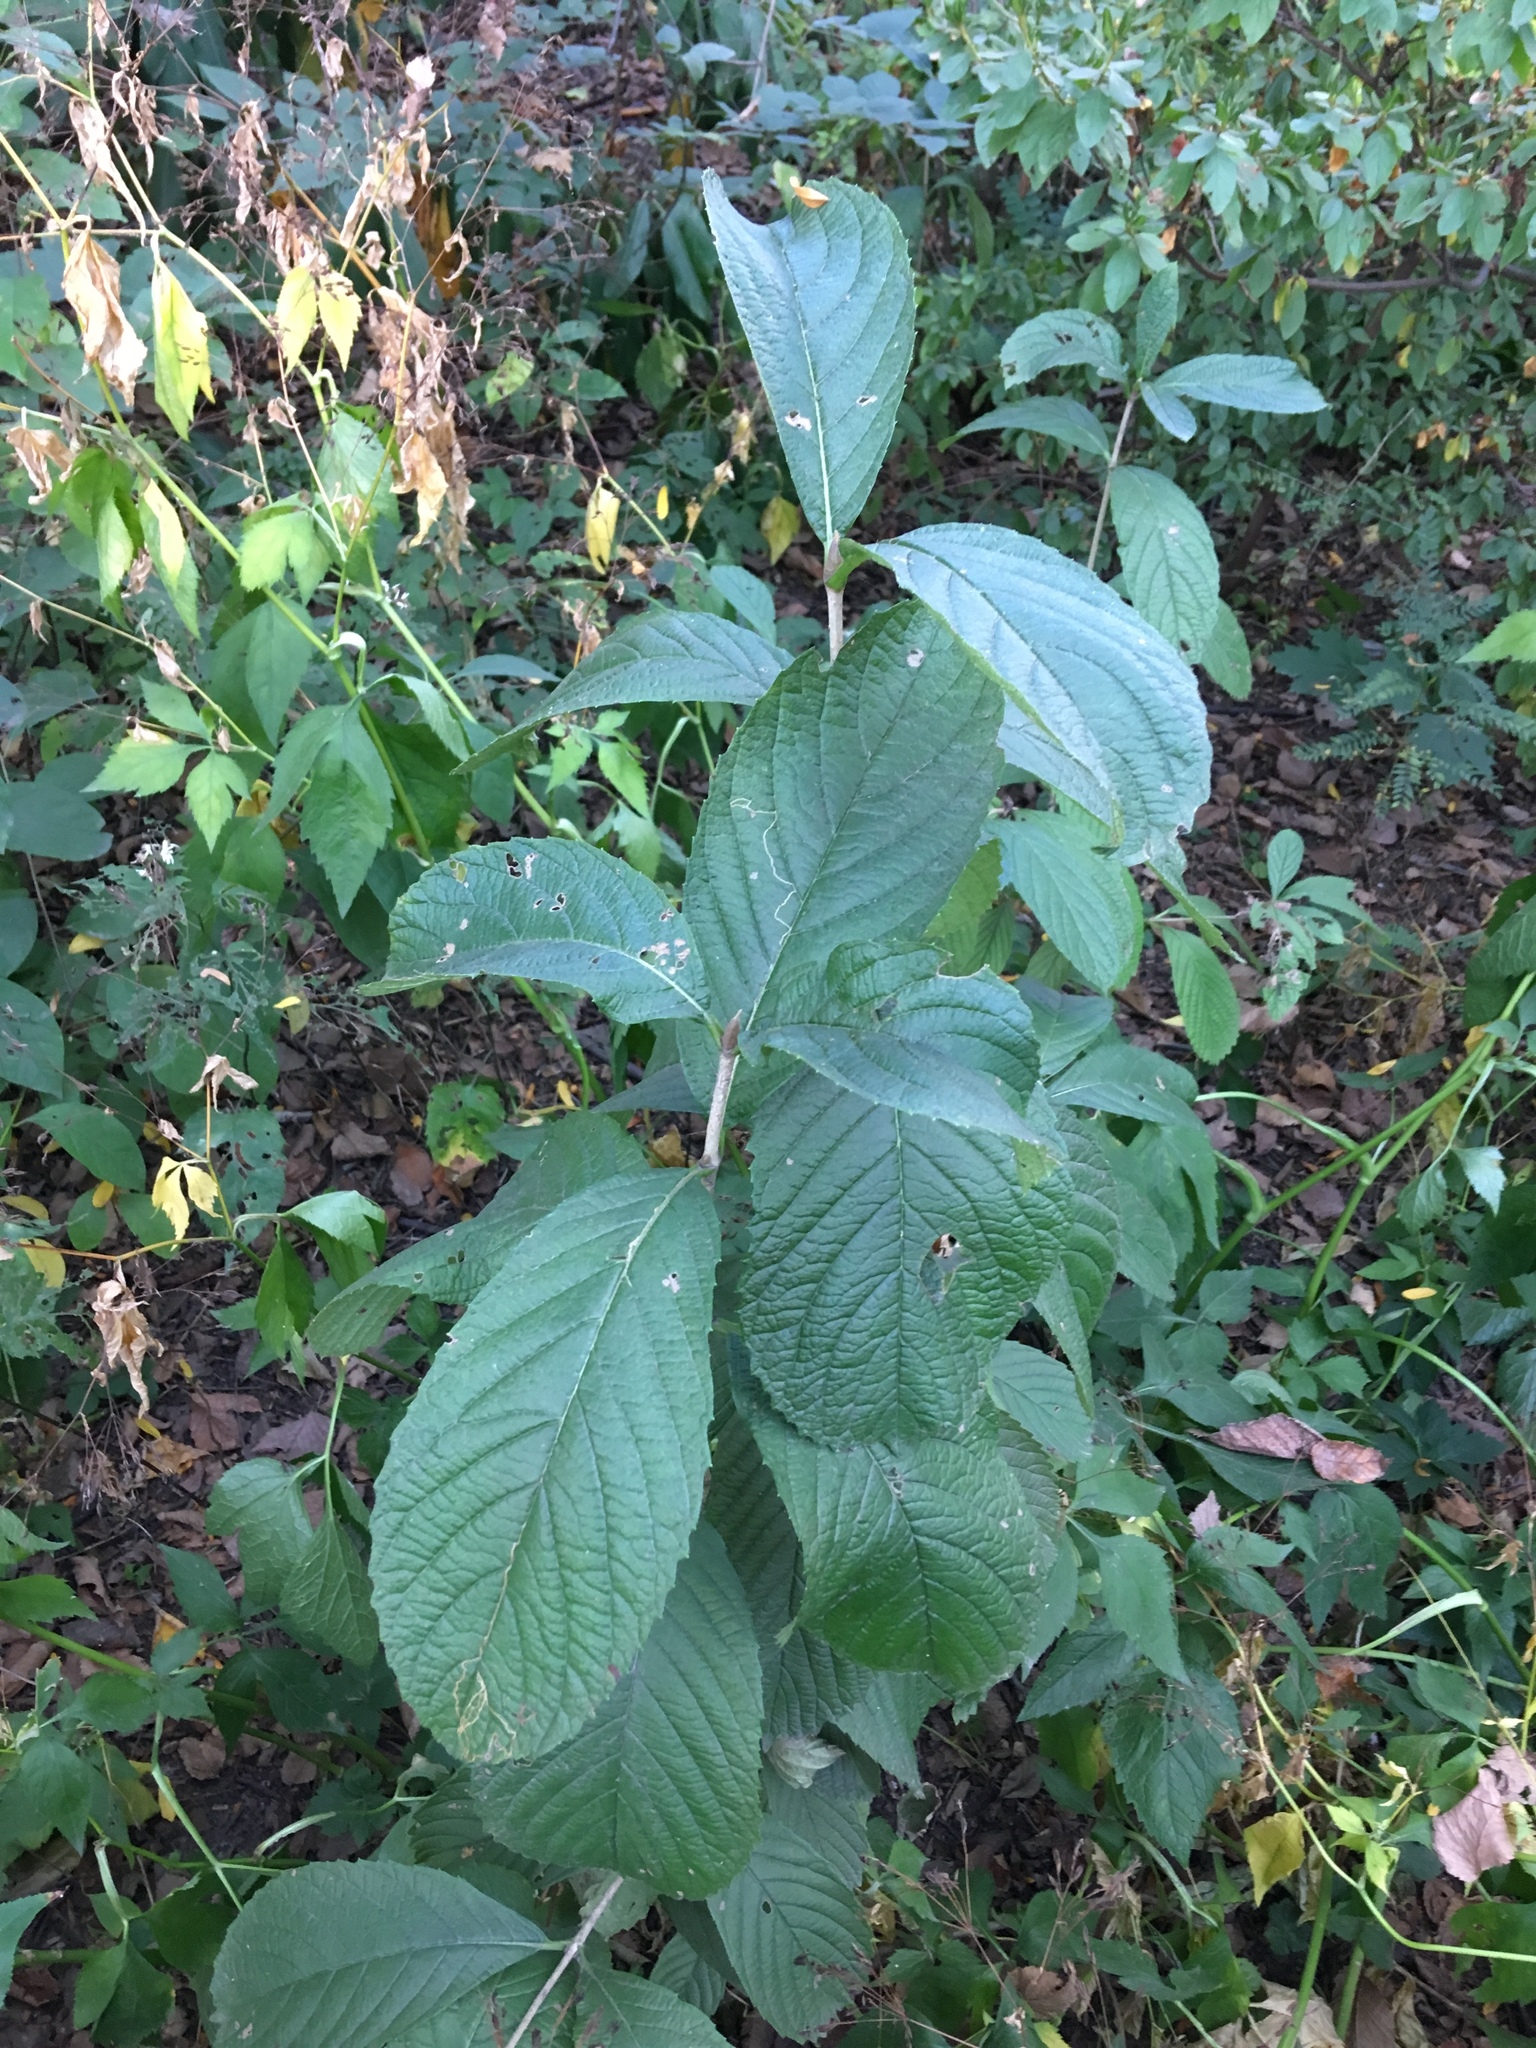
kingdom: Plantae
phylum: Tracheophyta
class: Magnoliopsida
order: Dipsacales
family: Viburnaceae
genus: Viburnum
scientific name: Viburnum sieboldii
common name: Siebold's arrowwood
